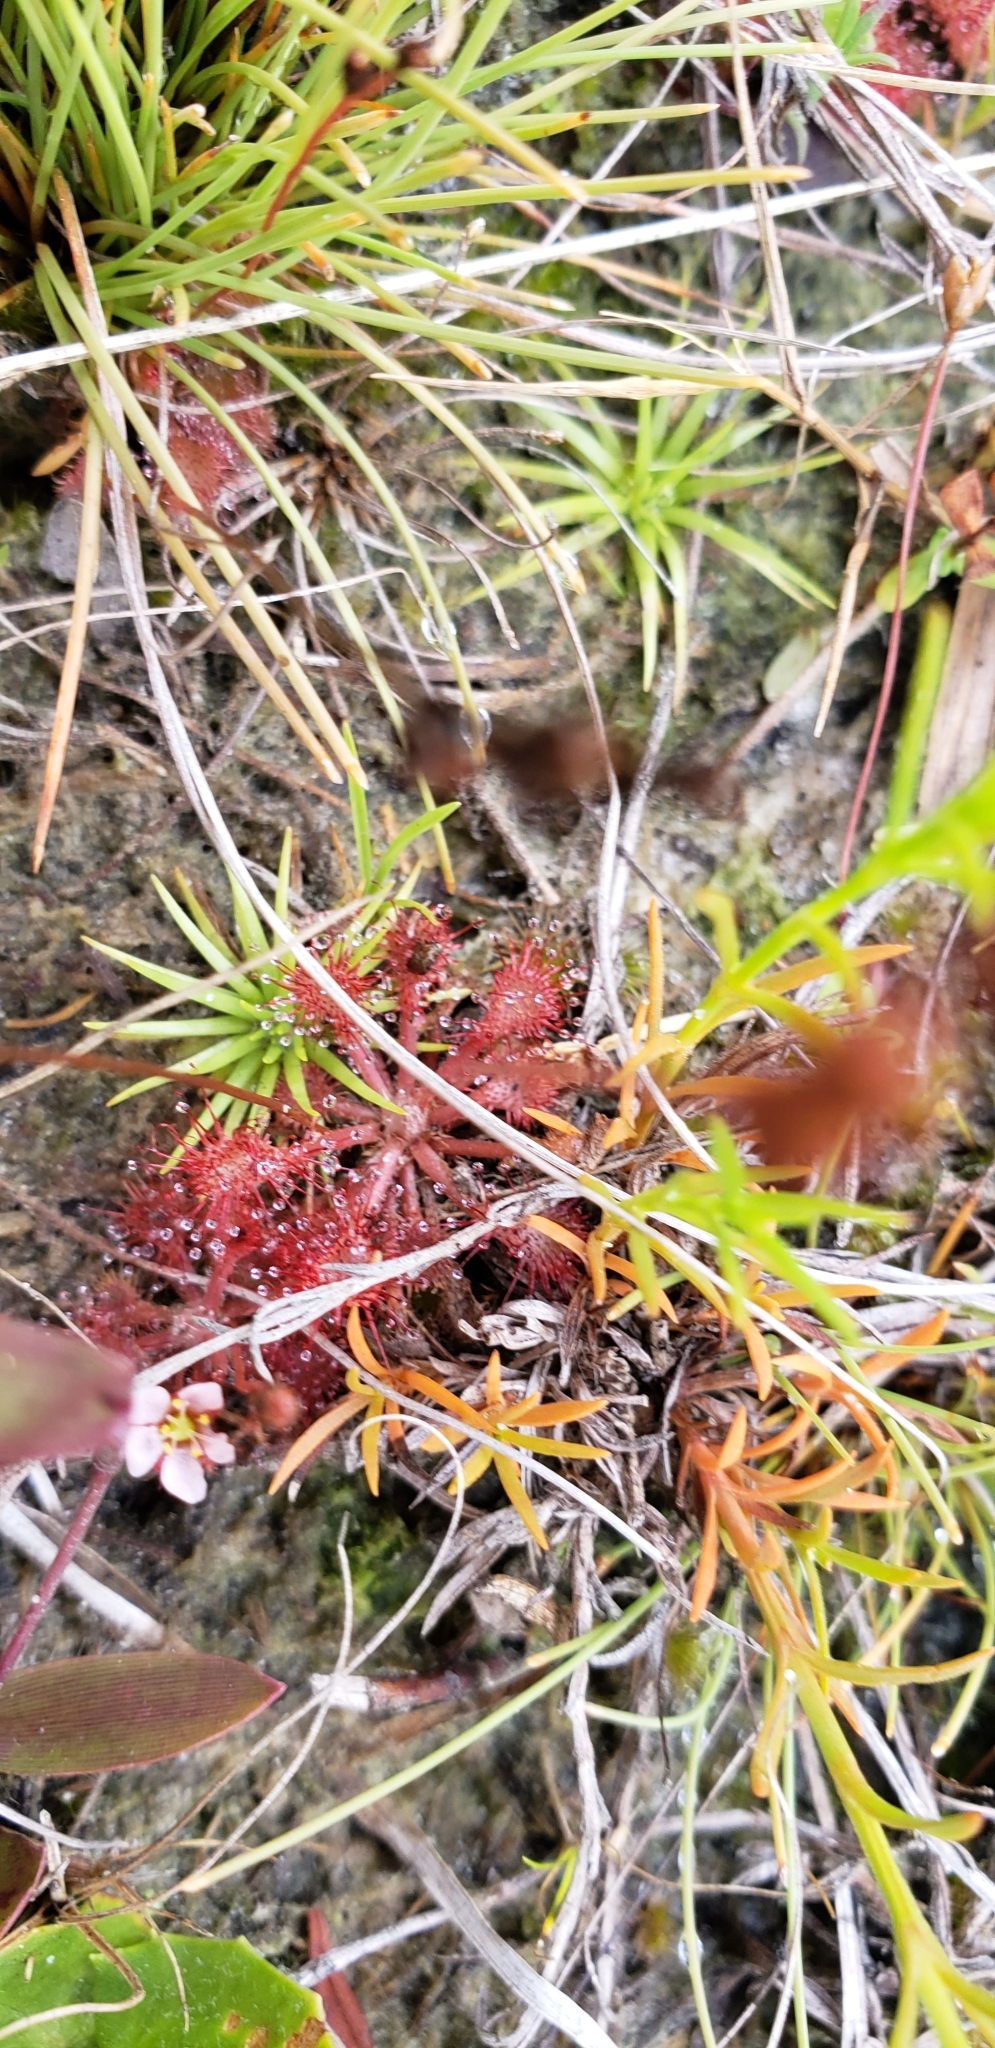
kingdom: Plantae
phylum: Tracheophyta
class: Magnoliopsida
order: Caryophyllales
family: Droseraceae
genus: Drosera
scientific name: Drosera capillaris
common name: Pink sundew
